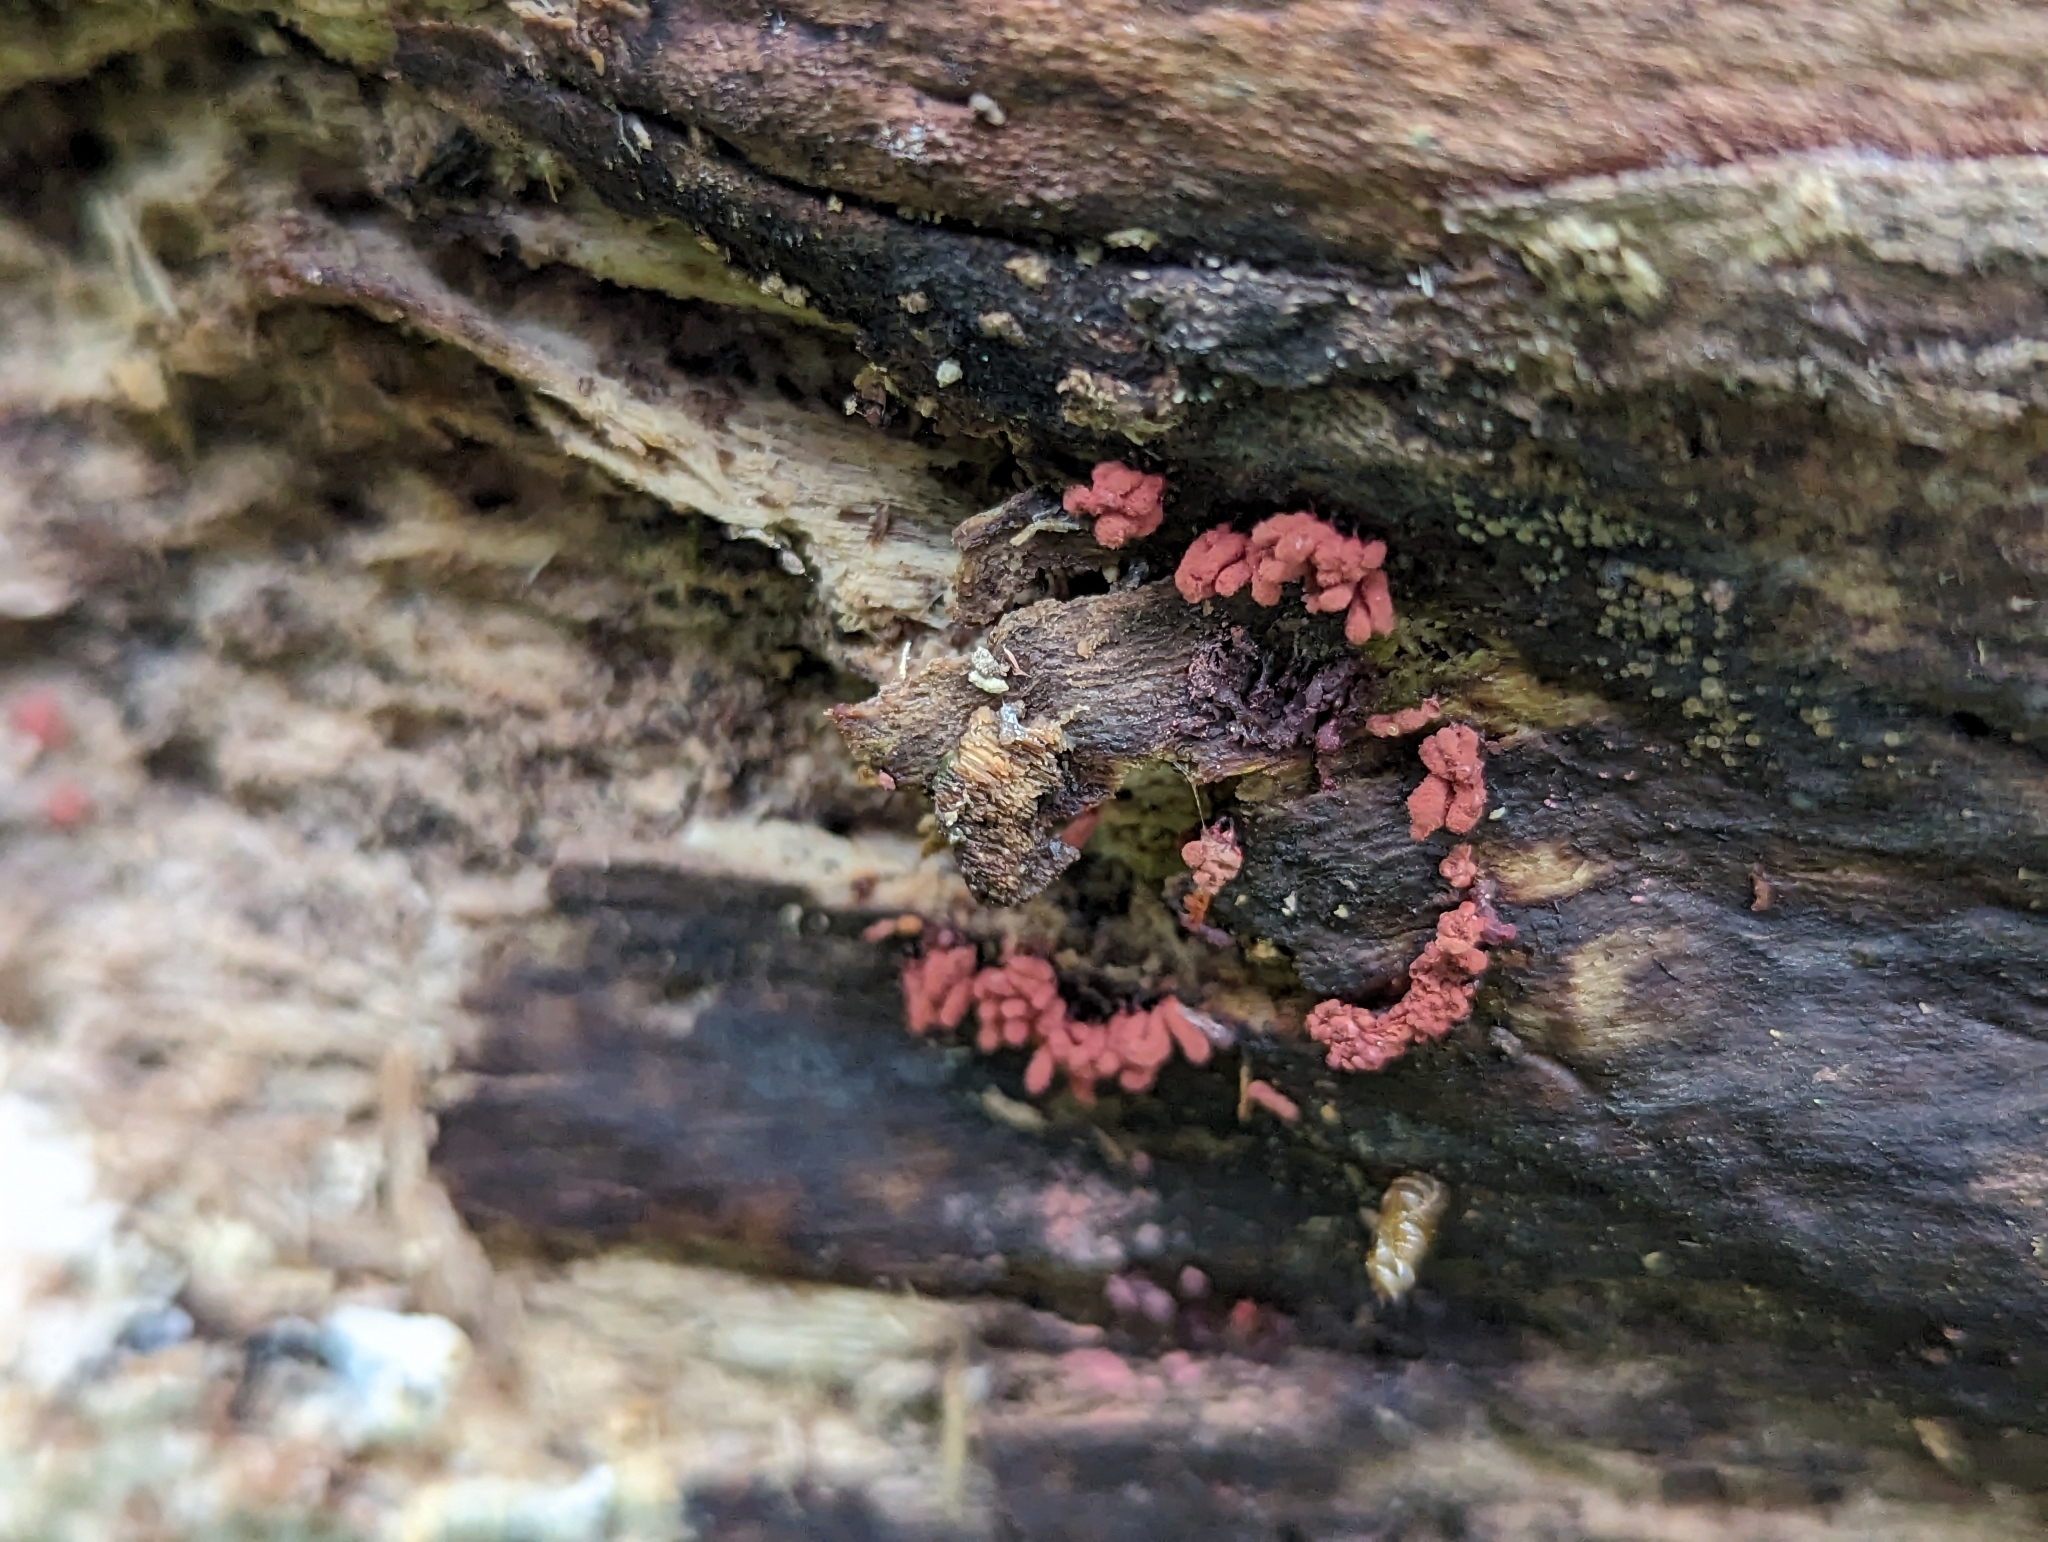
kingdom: Protozoa
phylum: Mycetozoa
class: Myxomycetes
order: Trichiales
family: Arcyriaceae
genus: Arcyria
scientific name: Arcyria denudata
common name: Carnival candy slime mold
